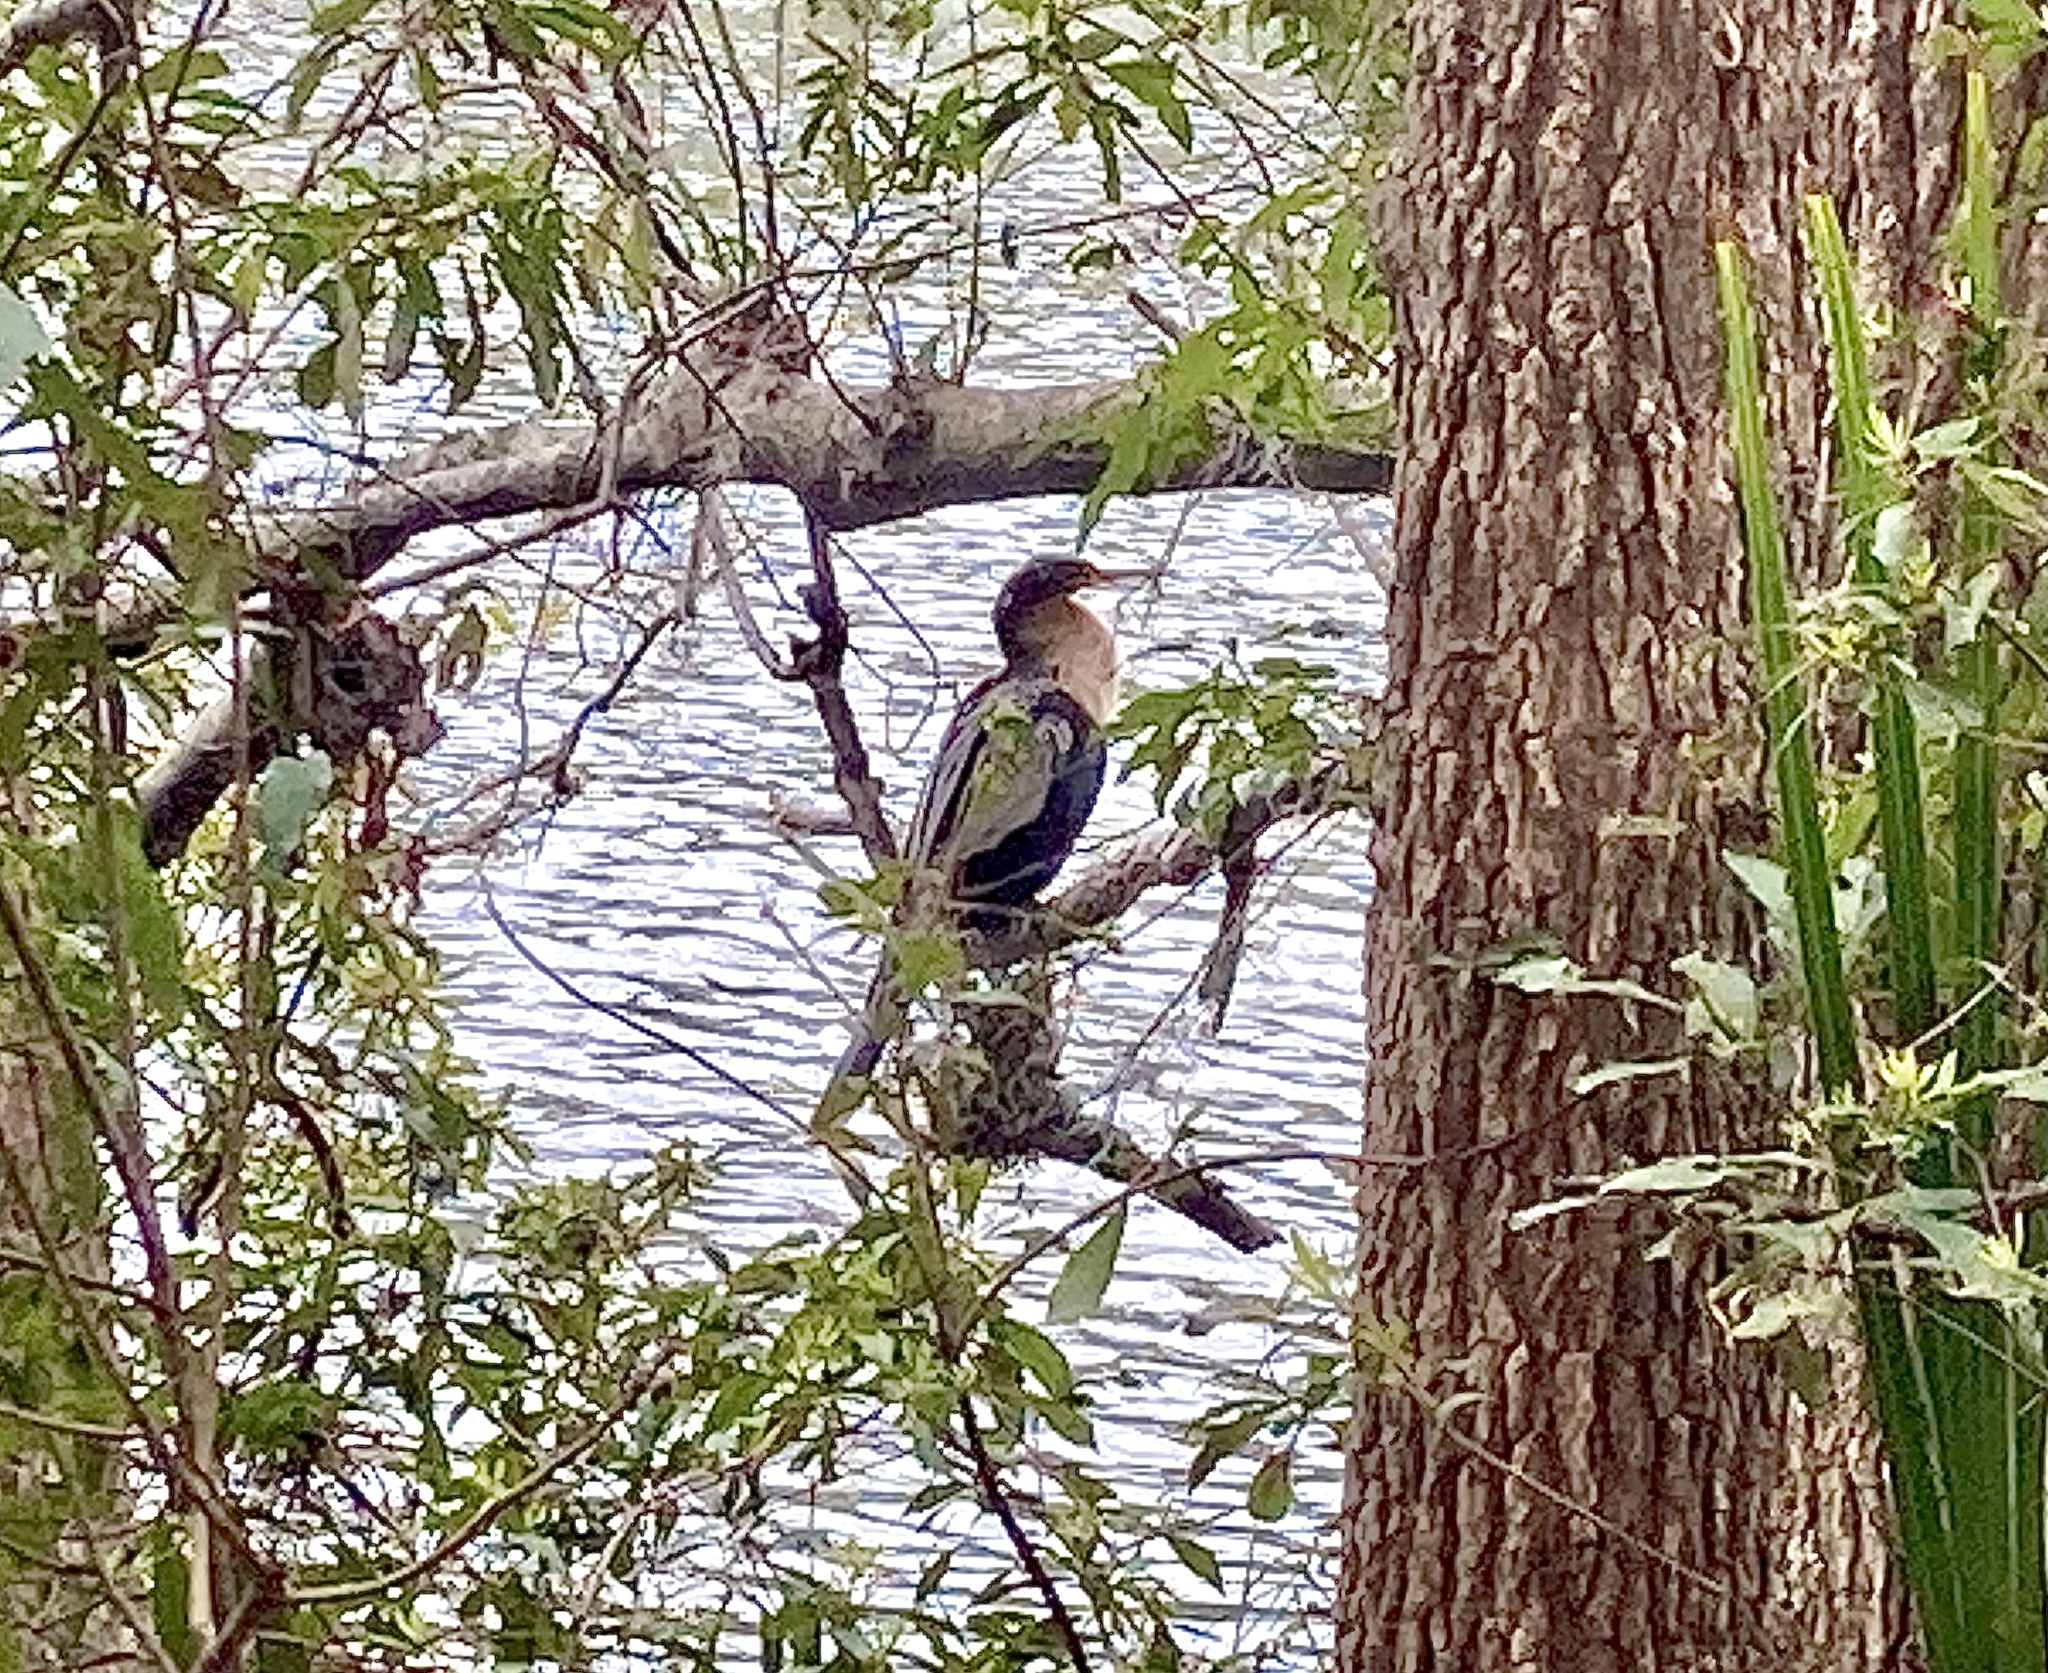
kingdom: Animalia
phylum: Chordata
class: Aves
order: Suliformes
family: Anhingidae
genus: Anhinga
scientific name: Anhinga anhinga
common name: Anhinga
